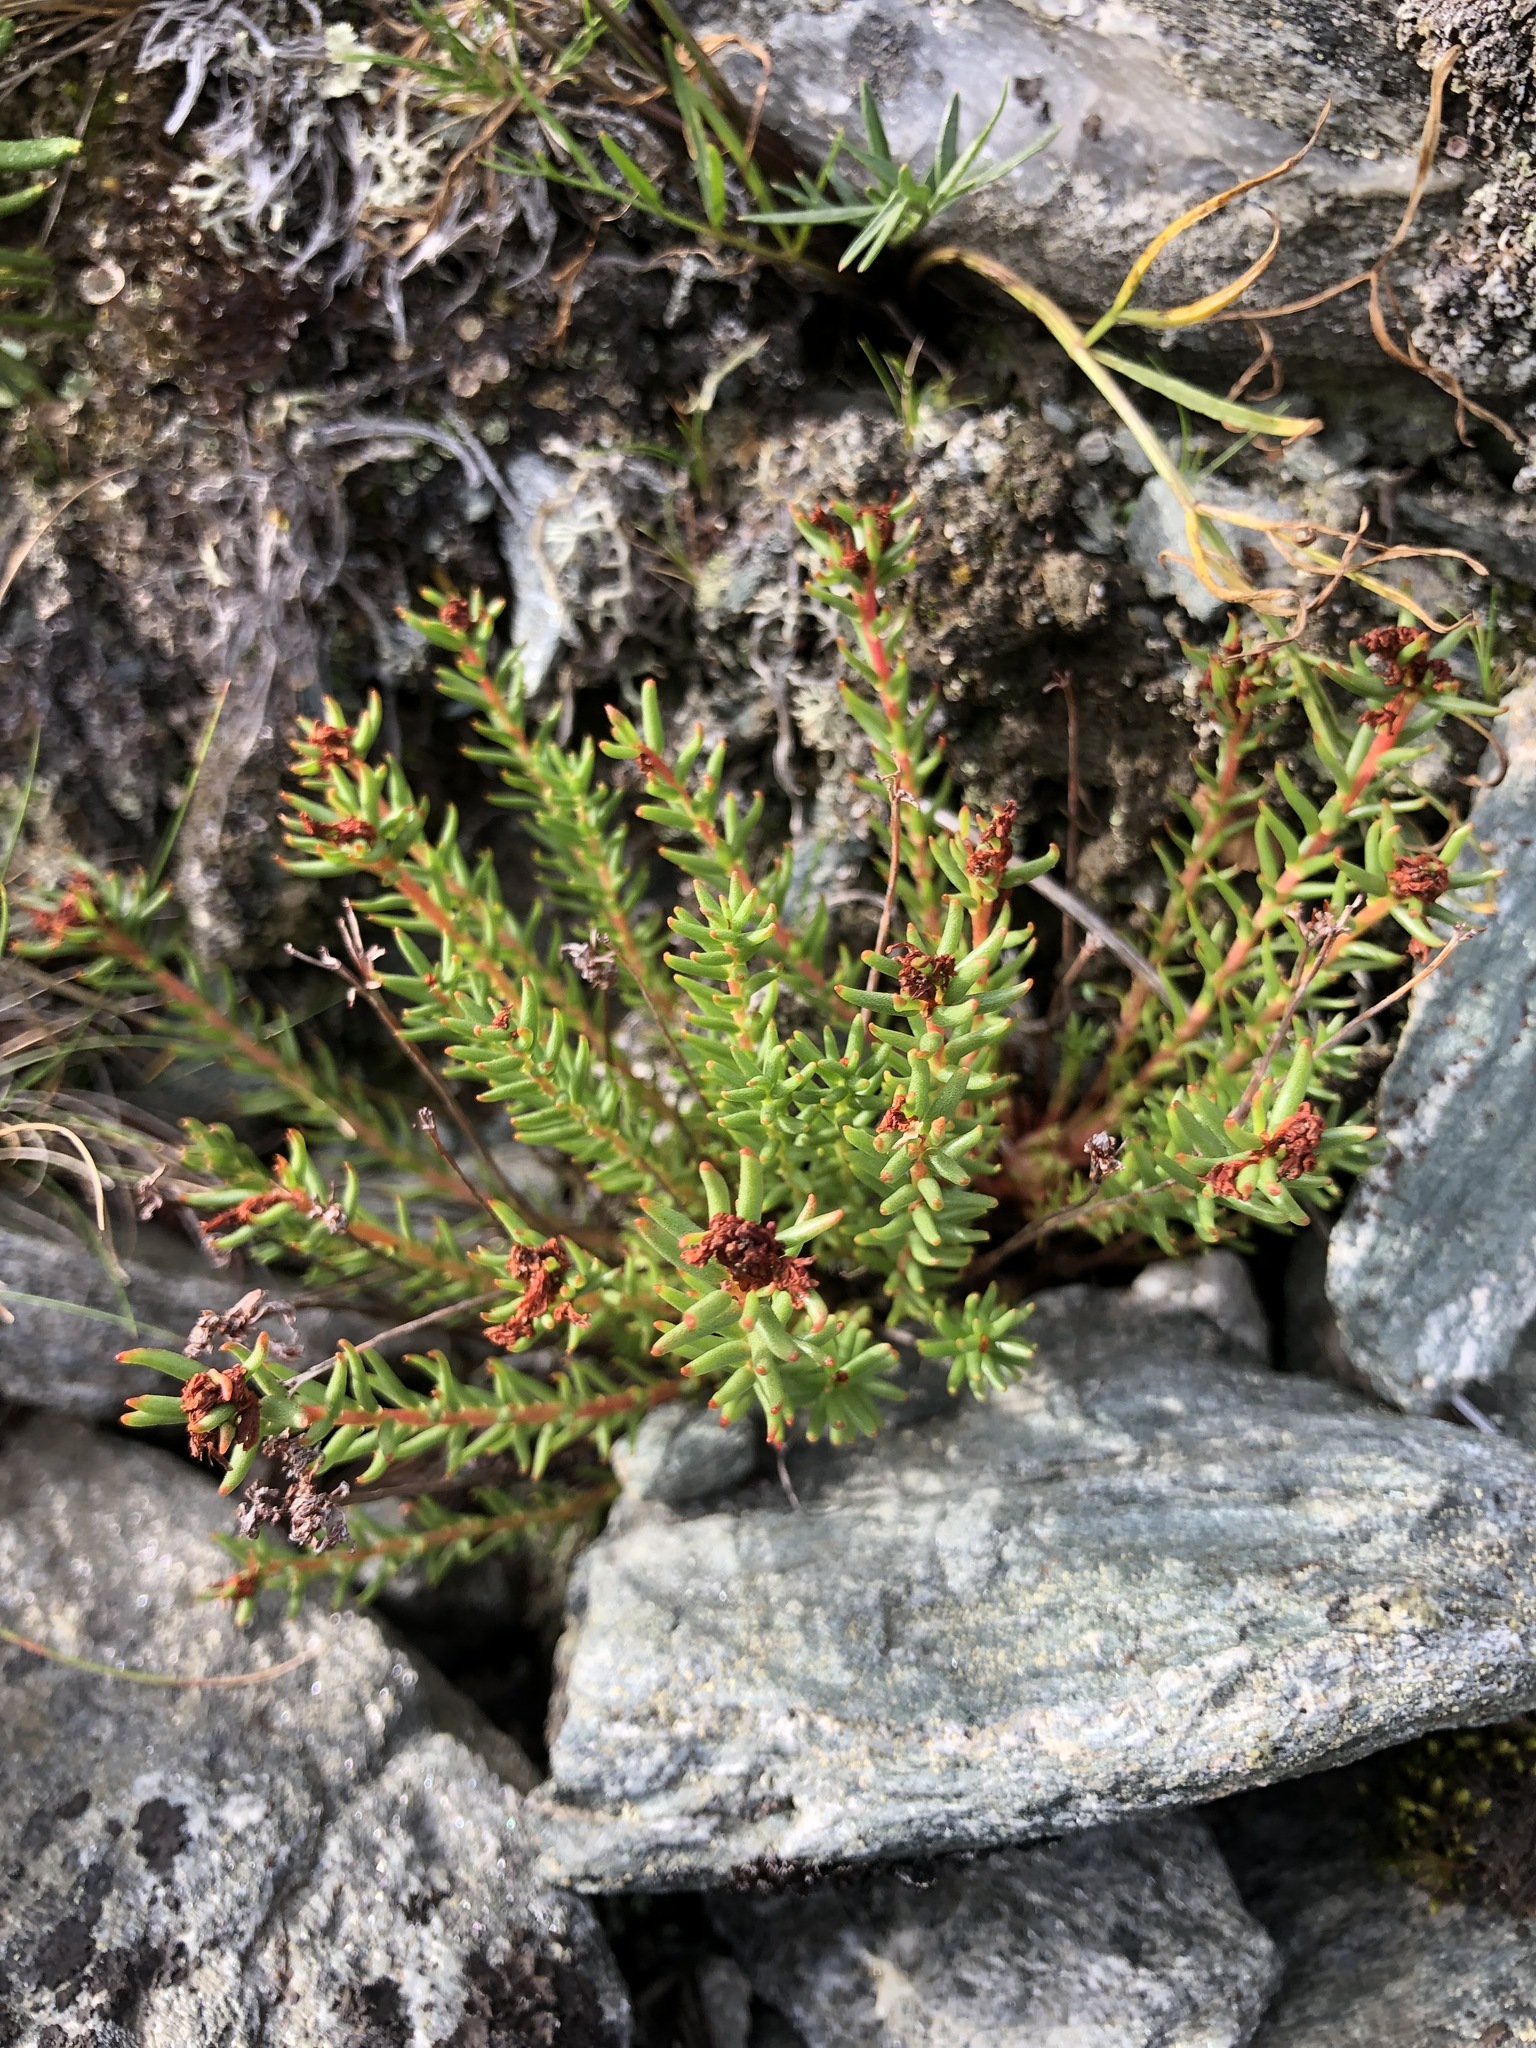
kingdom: Plantae
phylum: Tracheophyta
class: Magnoliopsida
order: Saxifragales
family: Crassulaceae
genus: Rhodiola
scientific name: Rhodiola quadrifida
